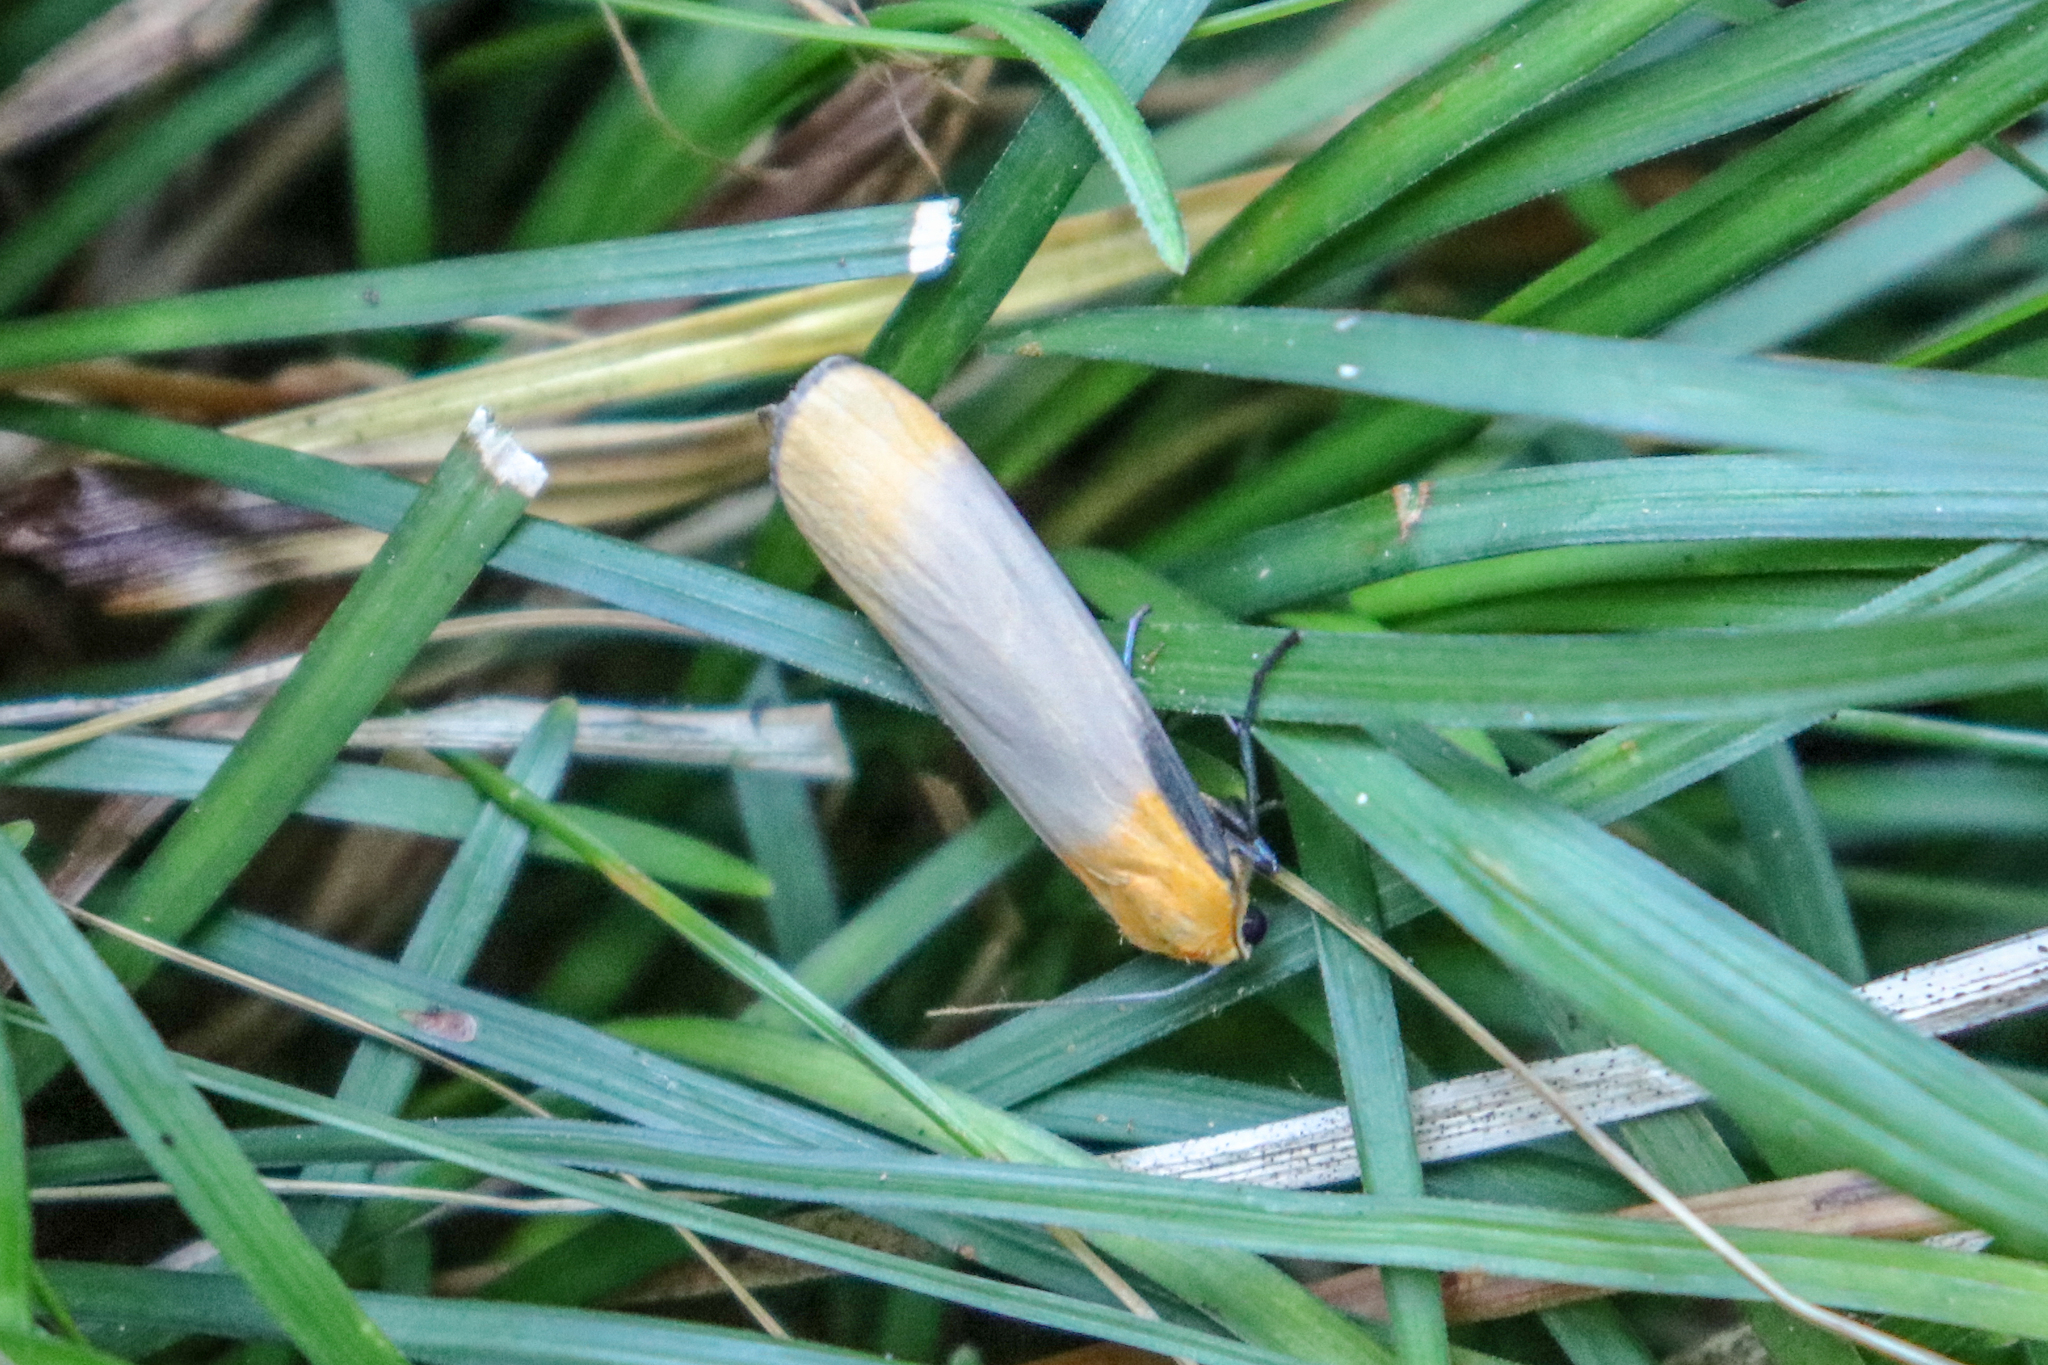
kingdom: Animalia
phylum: Arthropoda
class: Insecta
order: Lepidoptera
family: Erebidae
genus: Lithosia
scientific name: Lithosia quadra
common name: Four-spotted footman
